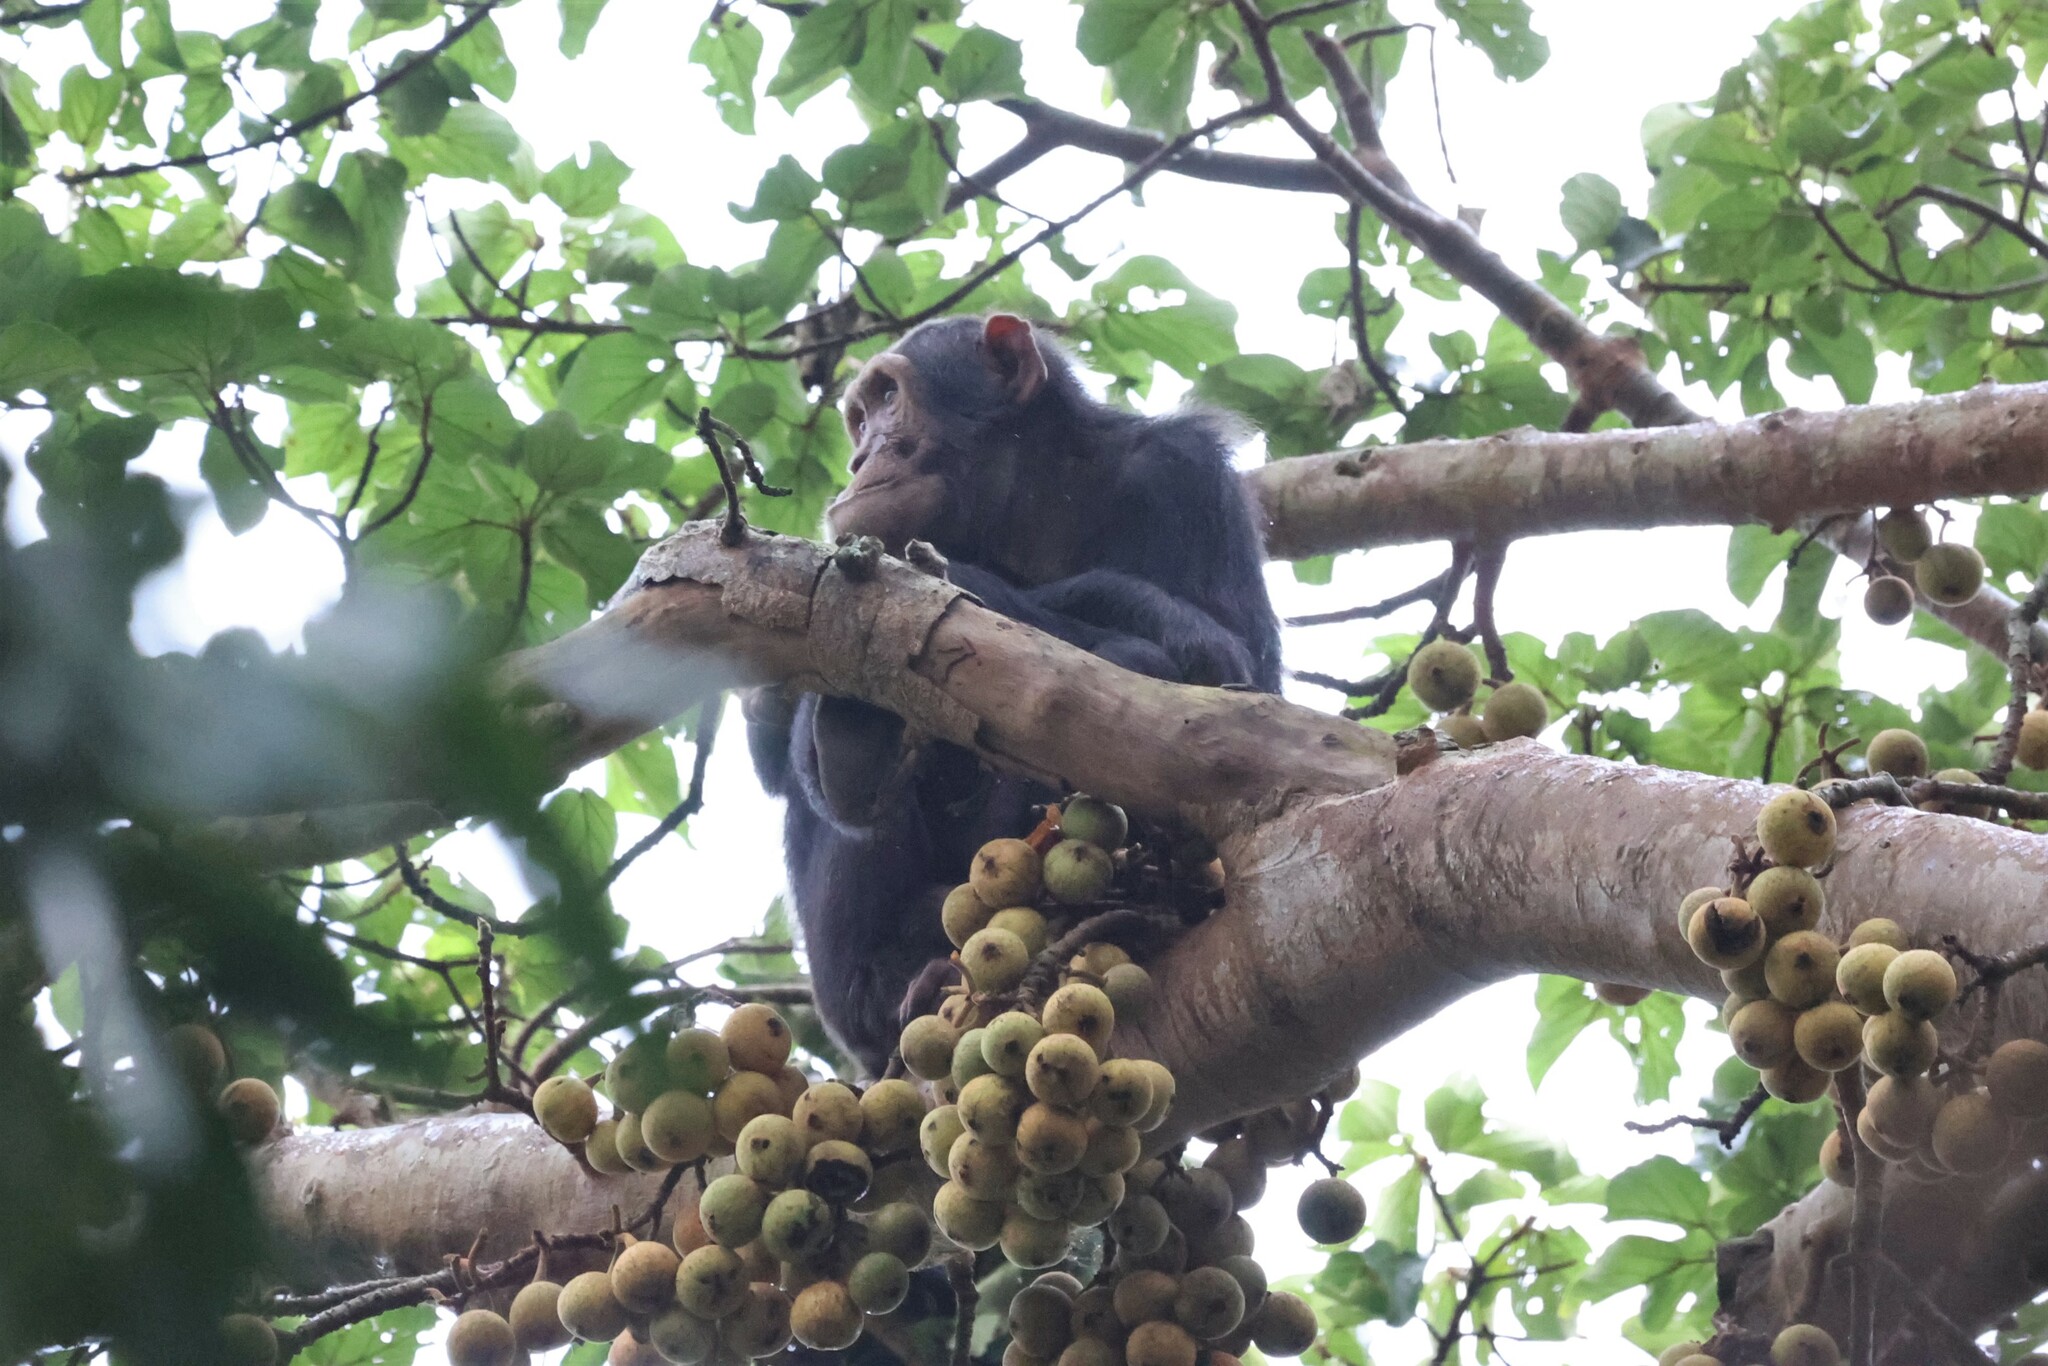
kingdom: Animalia
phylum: Chordata
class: Mammalia
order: Primates
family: Hominidae
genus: Pan
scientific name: Pan troglodytes
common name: Chimpanzee
